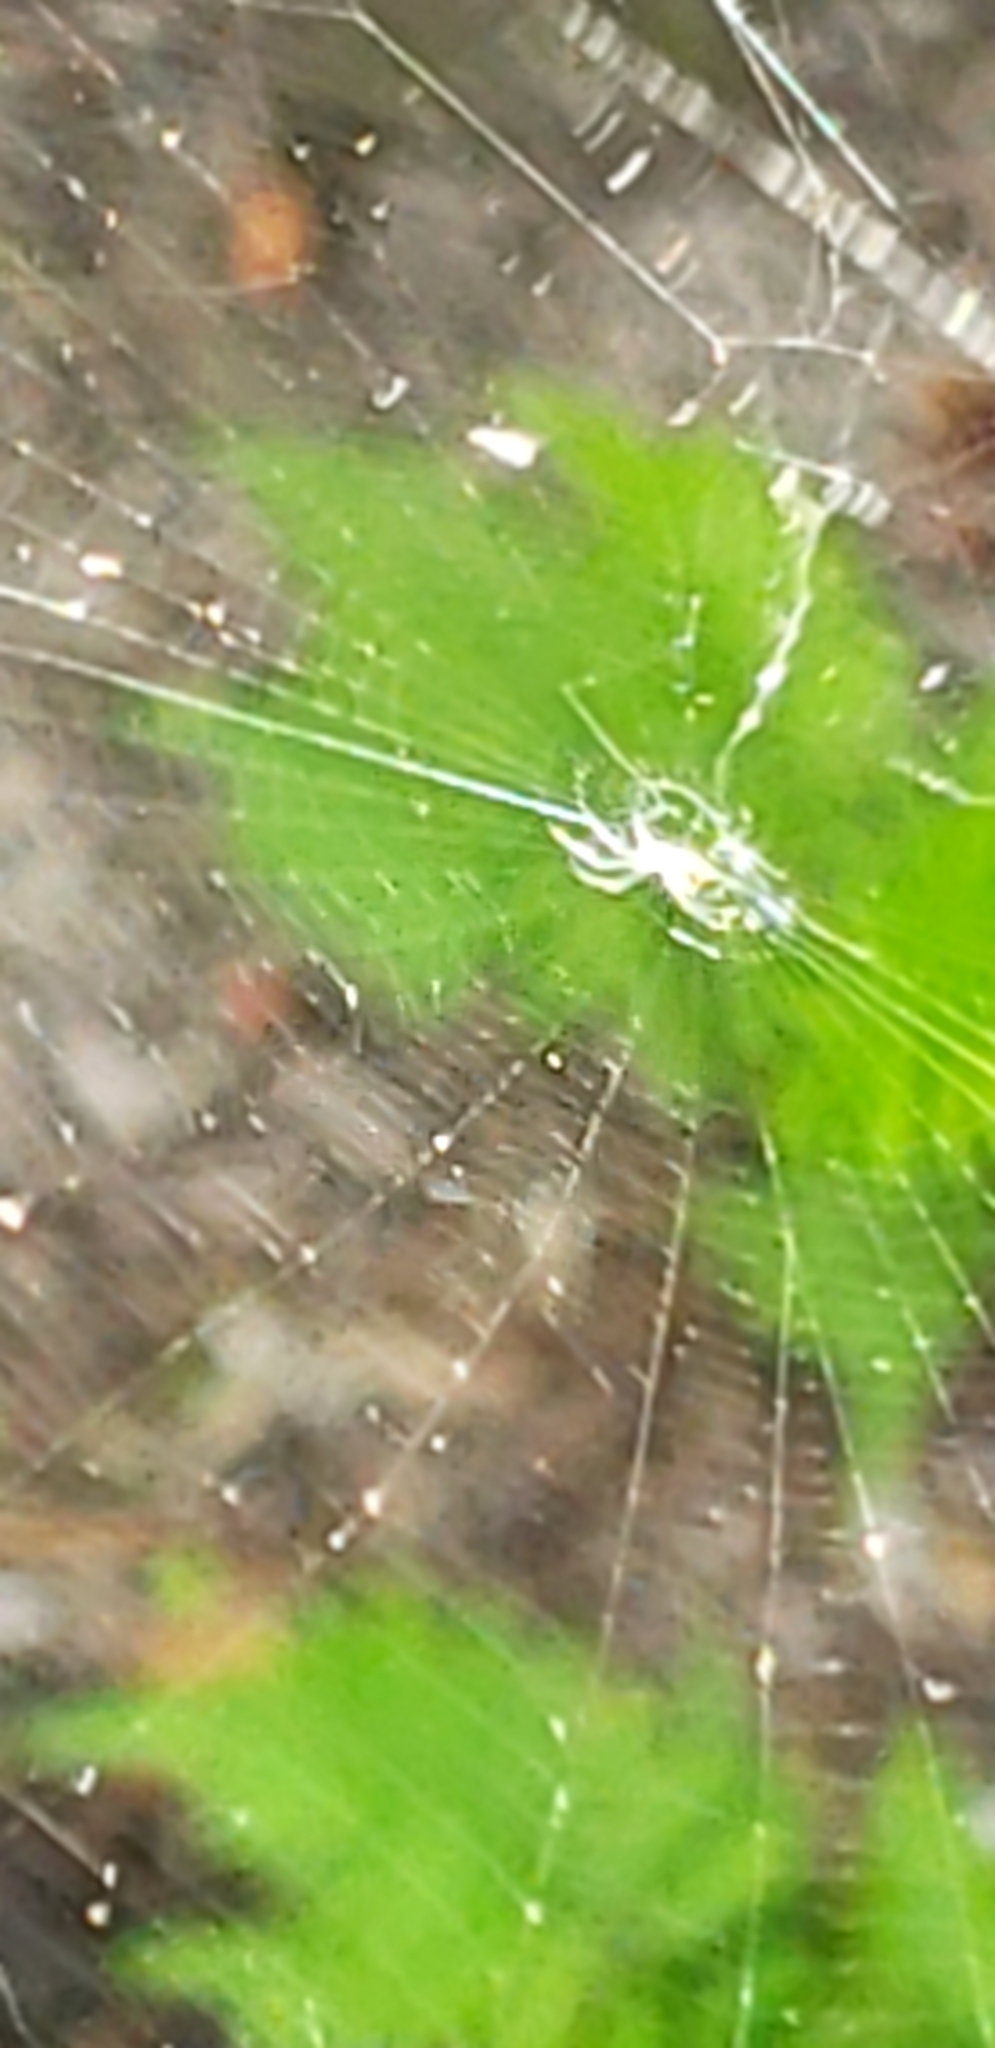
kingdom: Animalia
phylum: Arthropoda
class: Arachnida
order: Araneae
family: Tetragnathidae
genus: Leucauge
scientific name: Leucauge
